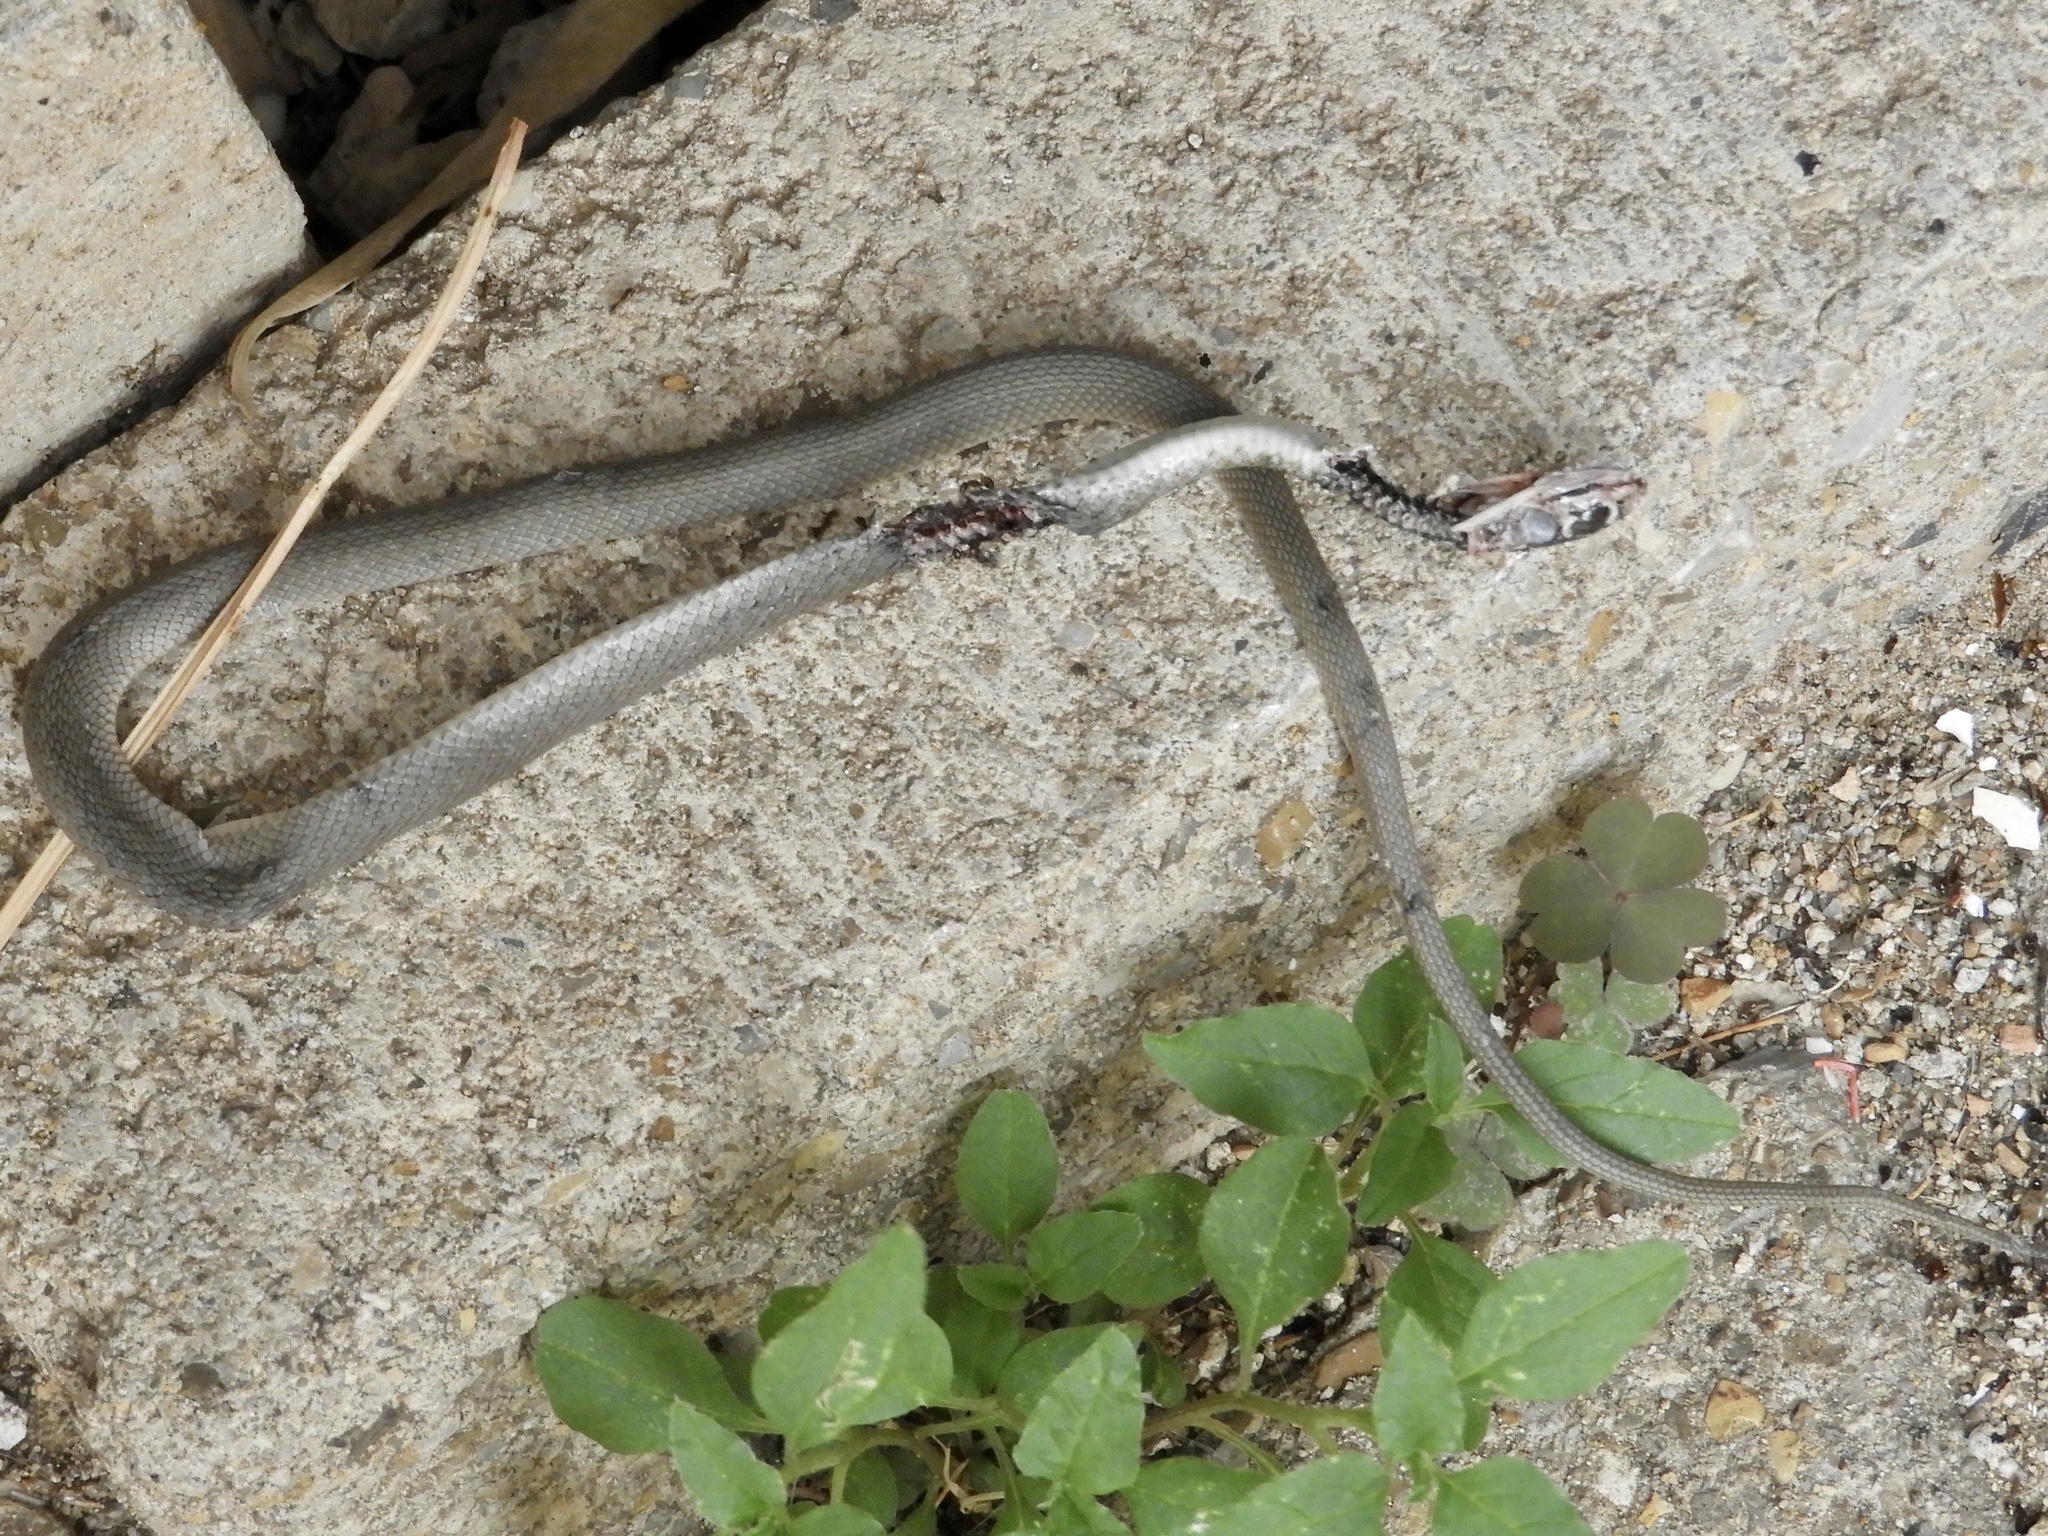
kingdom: Animalia
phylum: Chordata
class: Squamata
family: Colubridae
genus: Hierophis
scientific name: Hierophis viridiflavus
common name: Green whip snake
